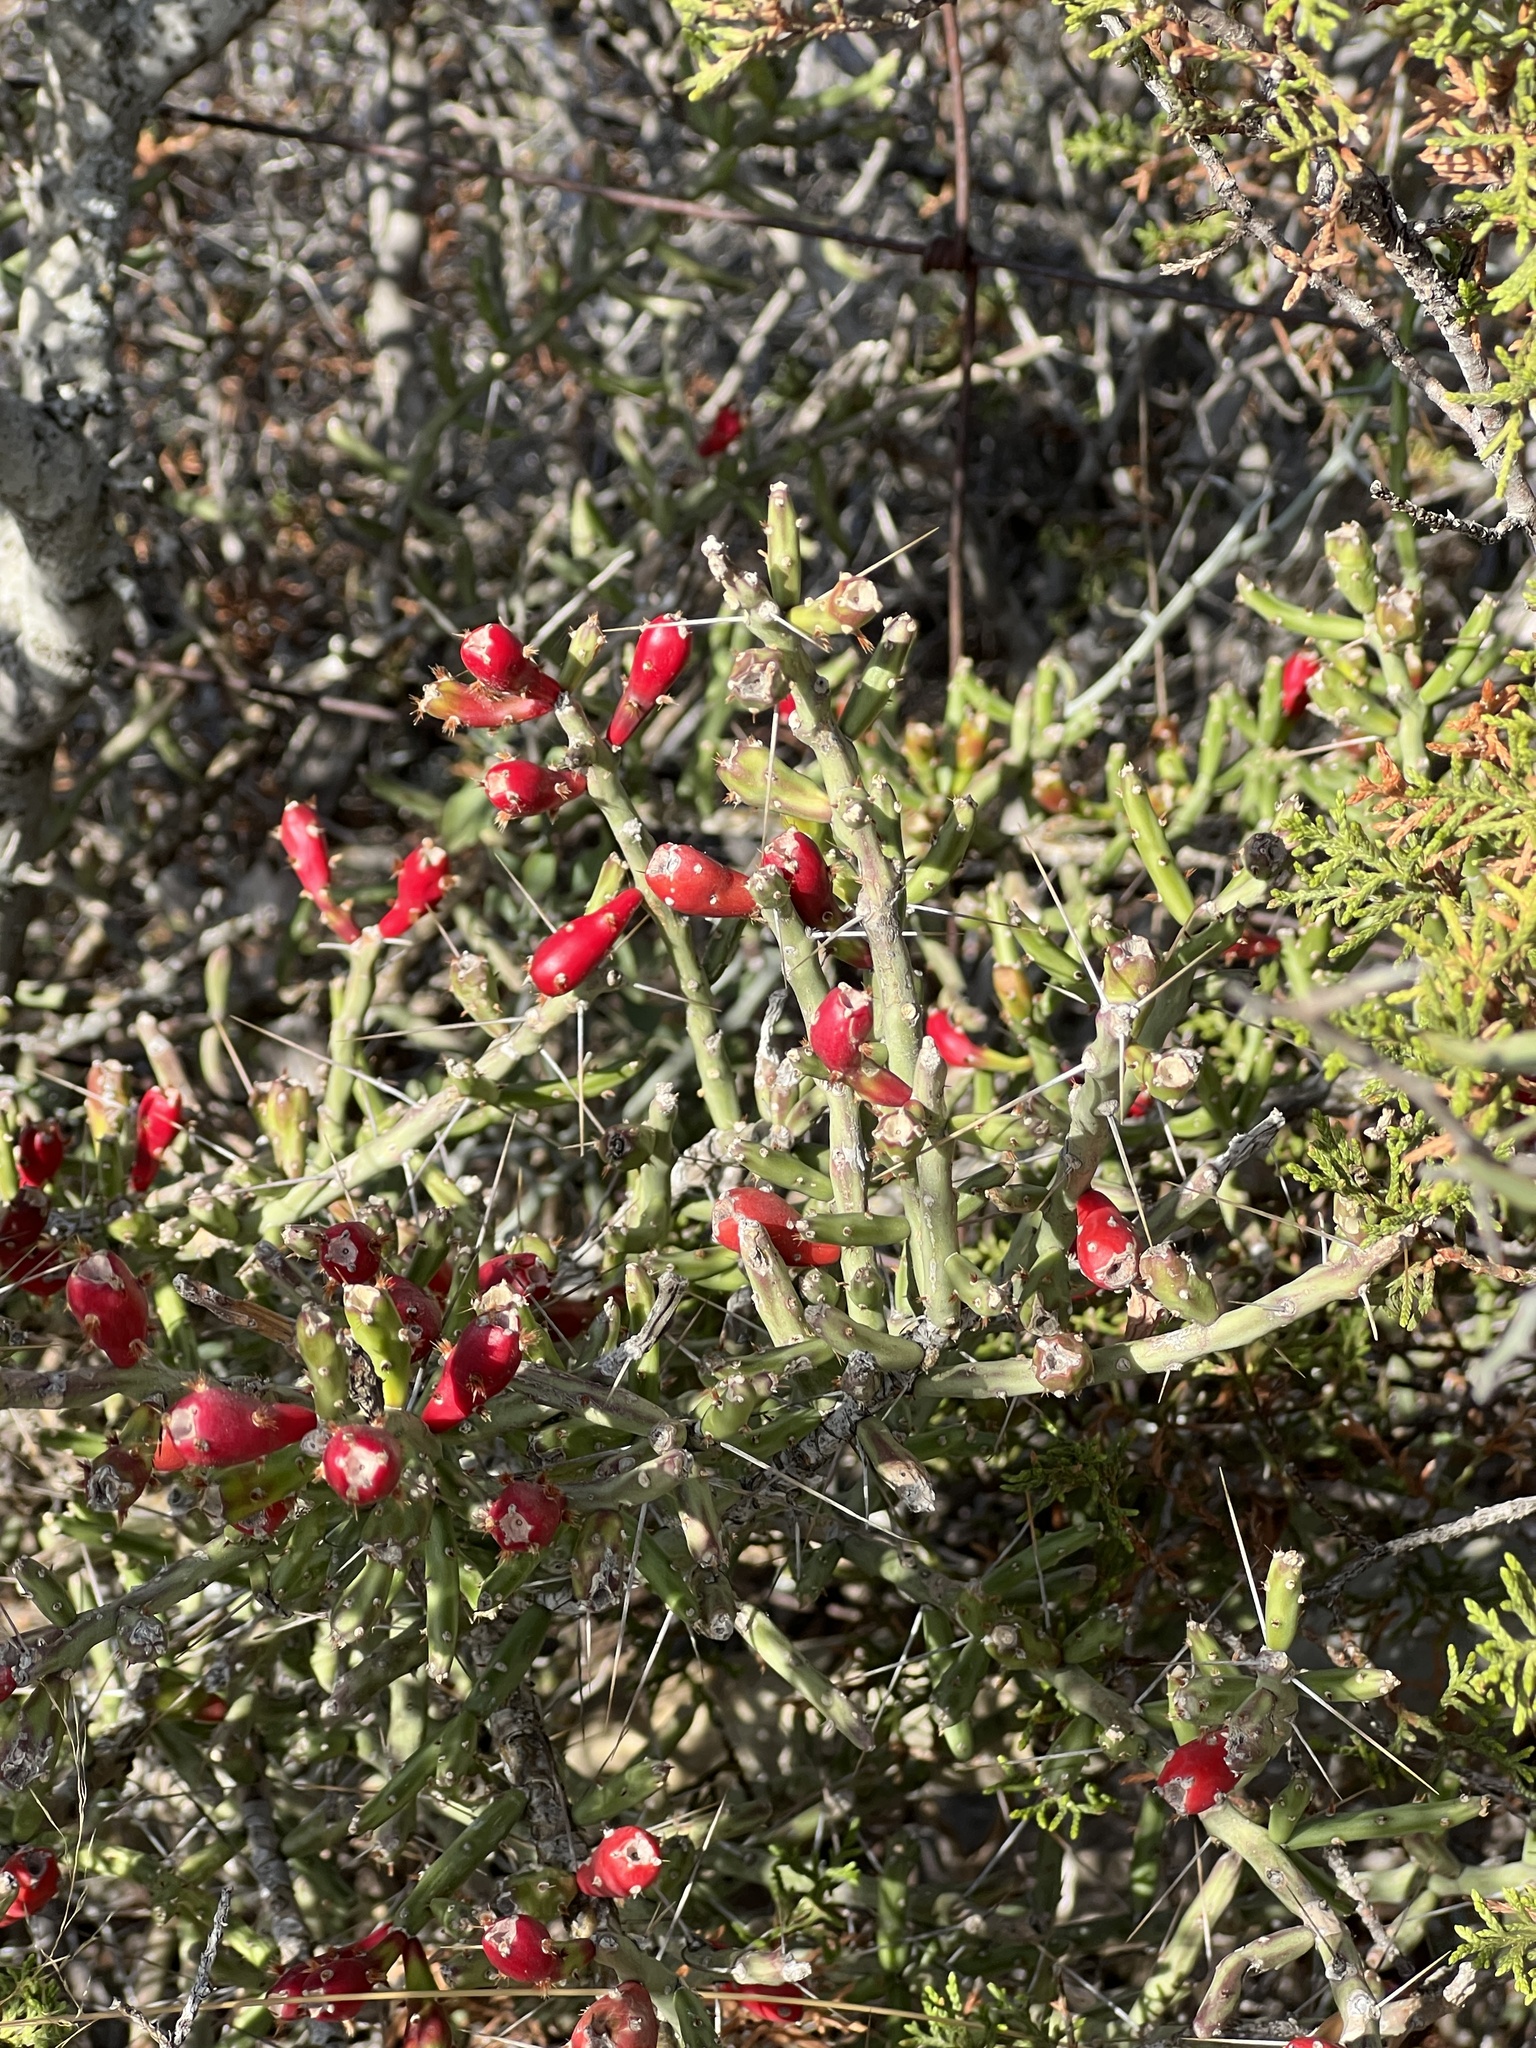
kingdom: Plantae
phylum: Tracheophyta
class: Magnoliopsida
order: Caryophyllales
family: Cactaceae
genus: Cylindropuntia
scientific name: Cylindropuntia leptocaulis
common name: Christmas cactus
